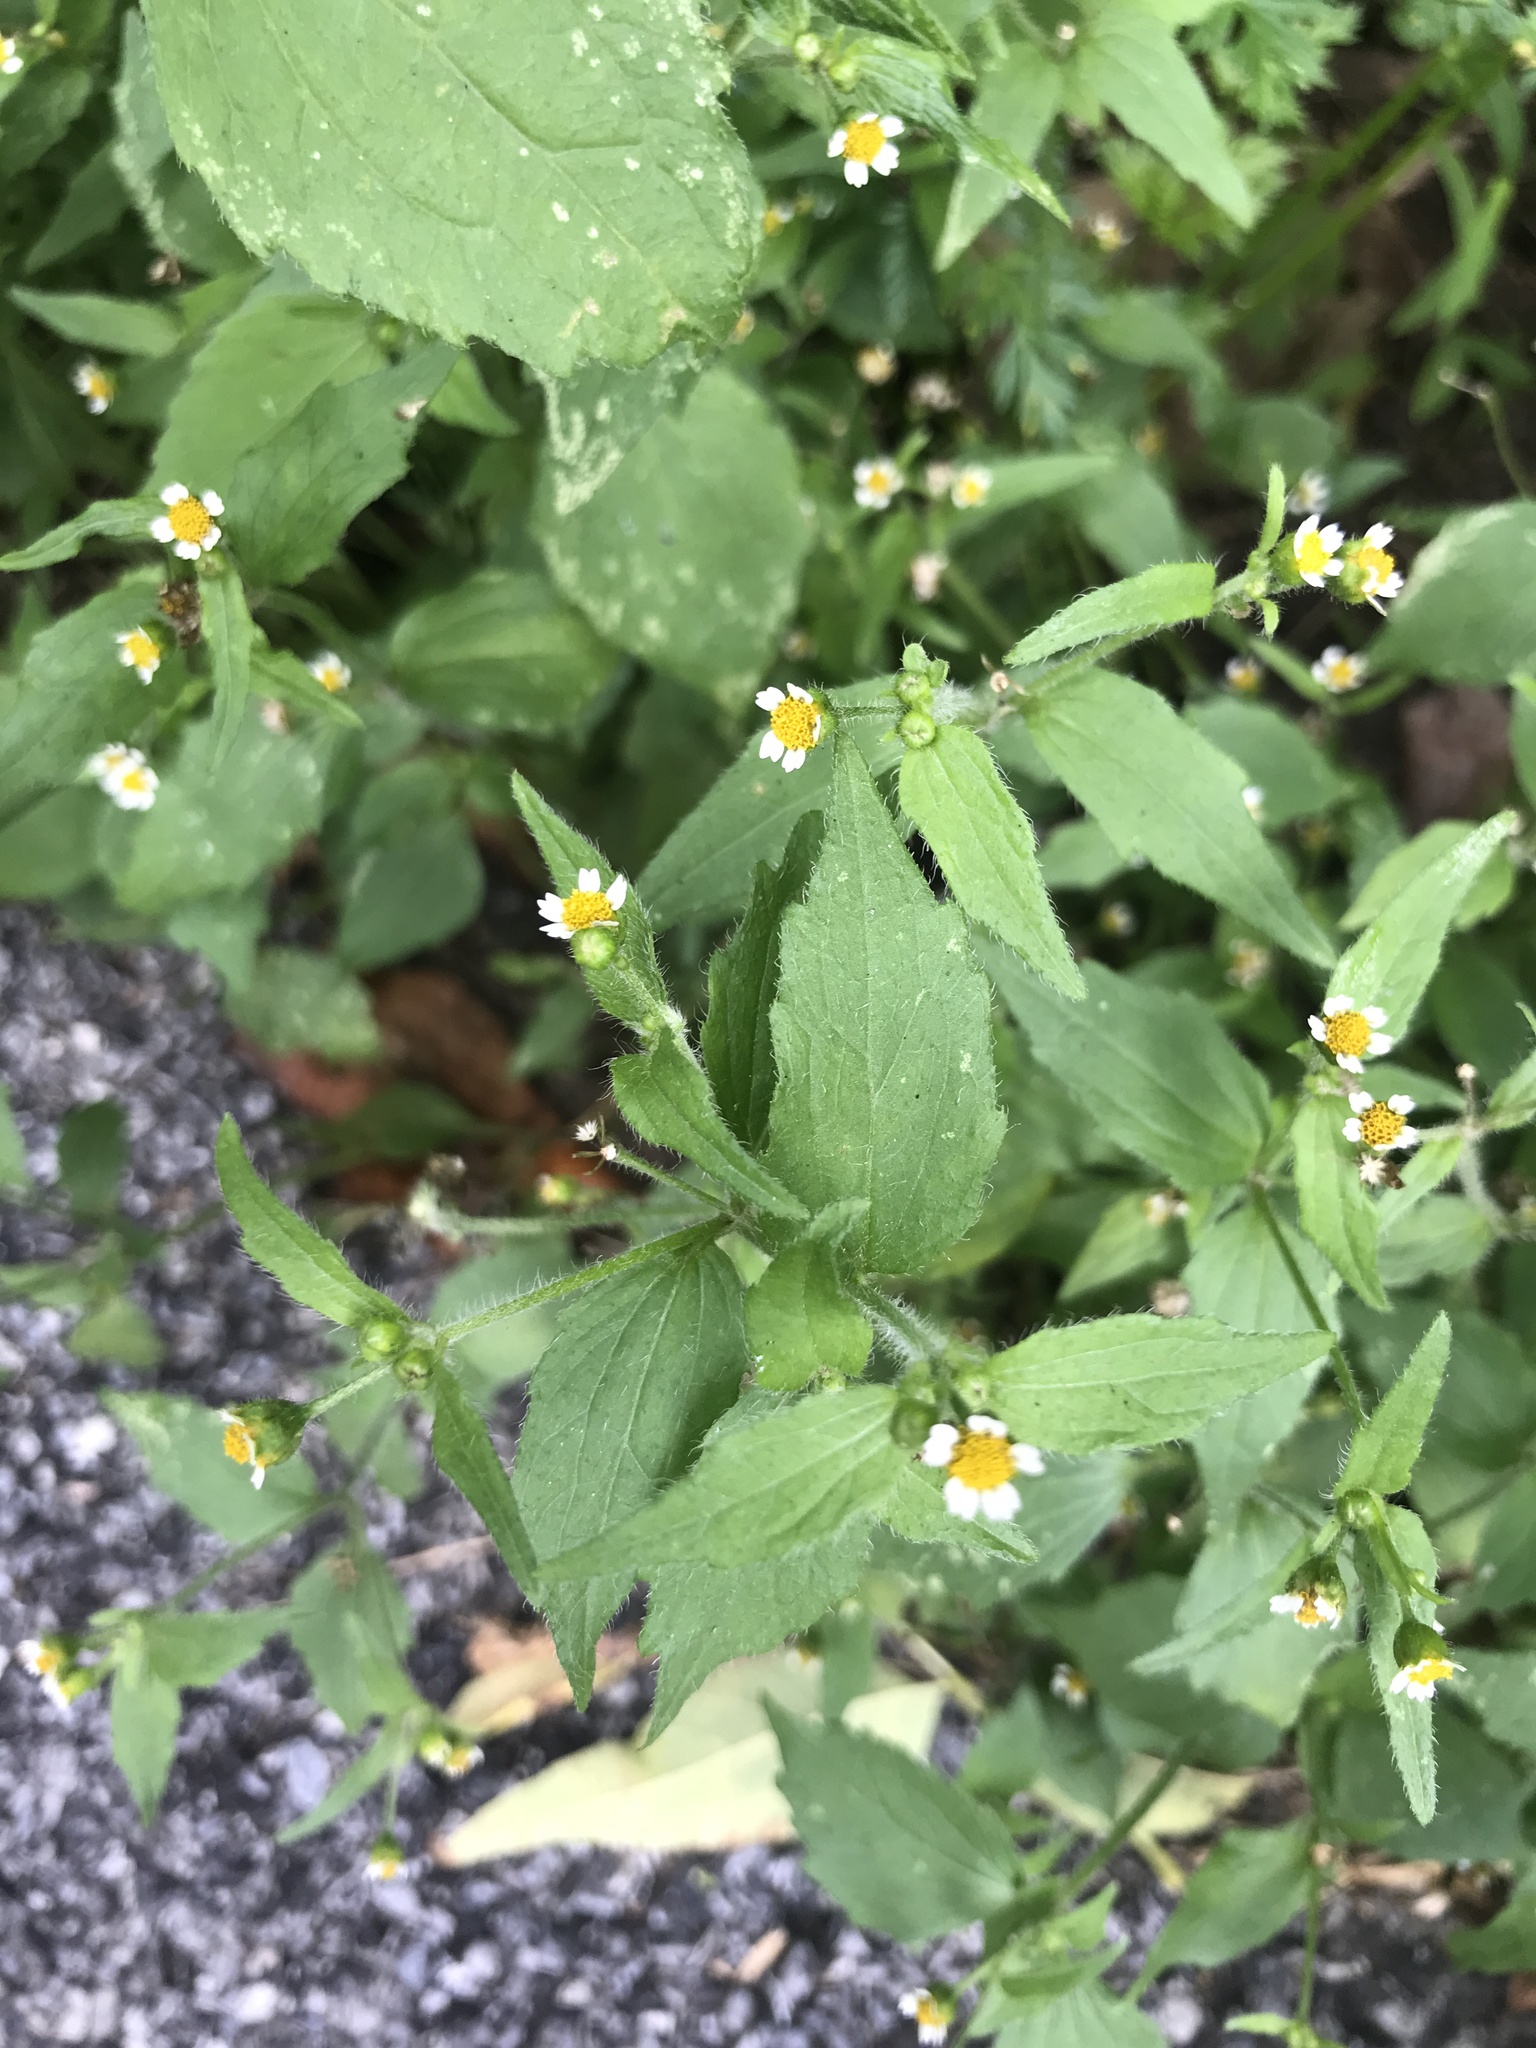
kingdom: Plantae
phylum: Tracheophyta
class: Magnoliopsida
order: Asterales
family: Asteraceae
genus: Galinsoga
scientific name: Galinsoga quadriradiata
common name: Shaggy soldier
